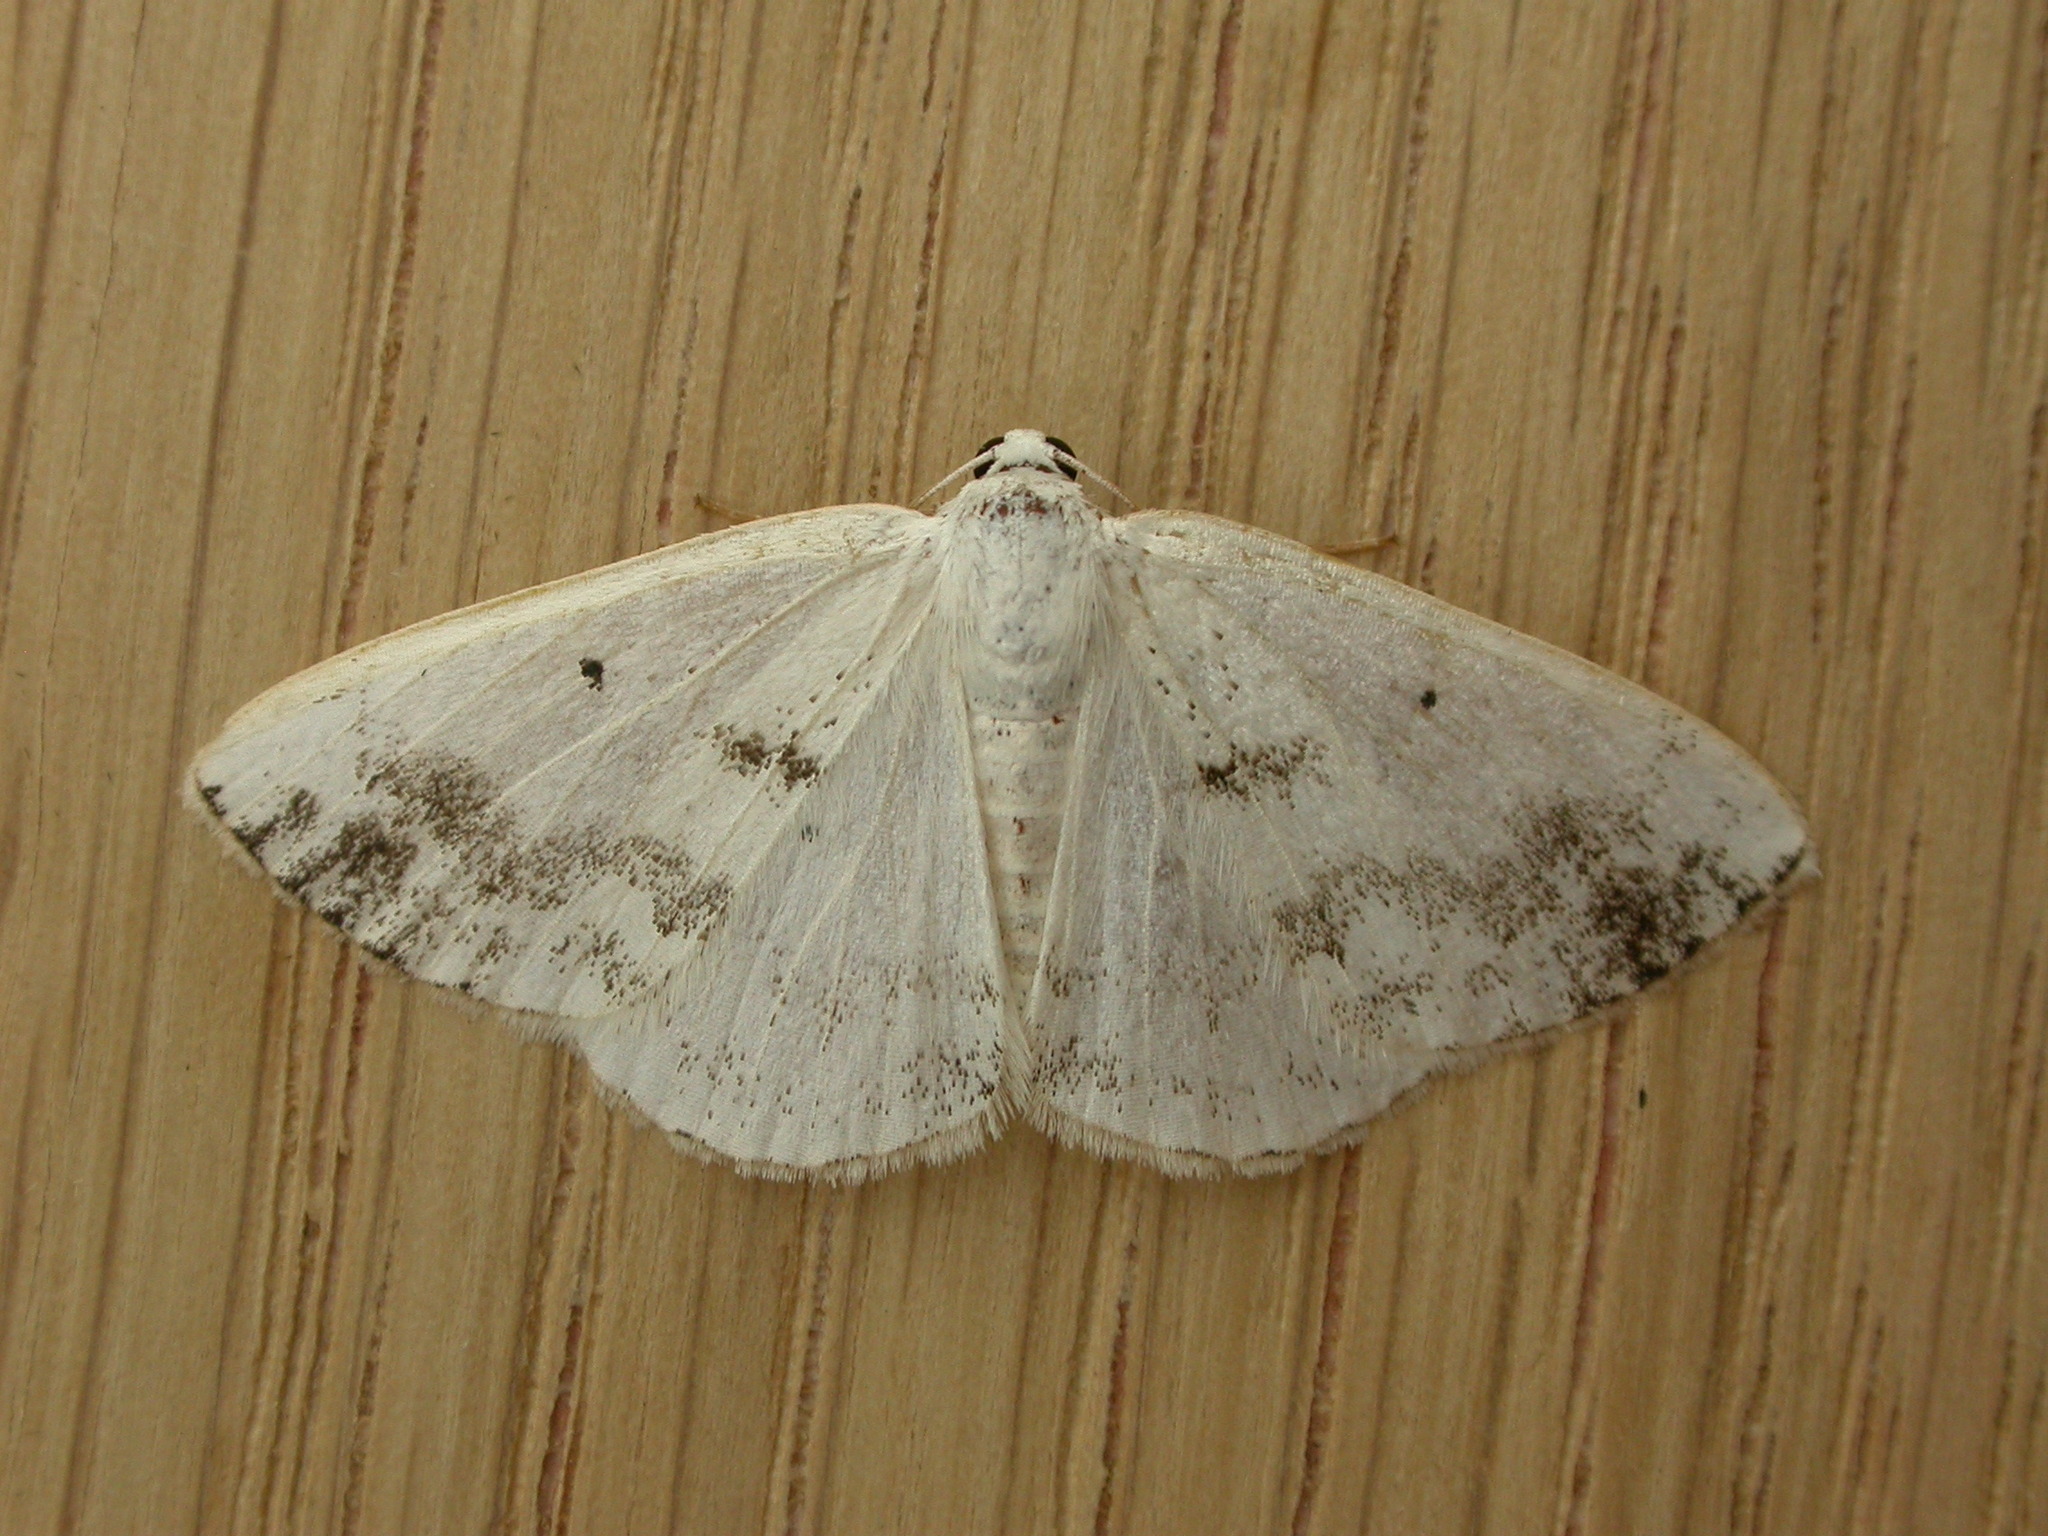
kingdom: Animalia
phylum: Arthropoda
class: Insecta
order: Lepidoptera
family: Geometridae
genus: Lomographa
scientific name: Lomographa temerata
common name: Clouded silver
